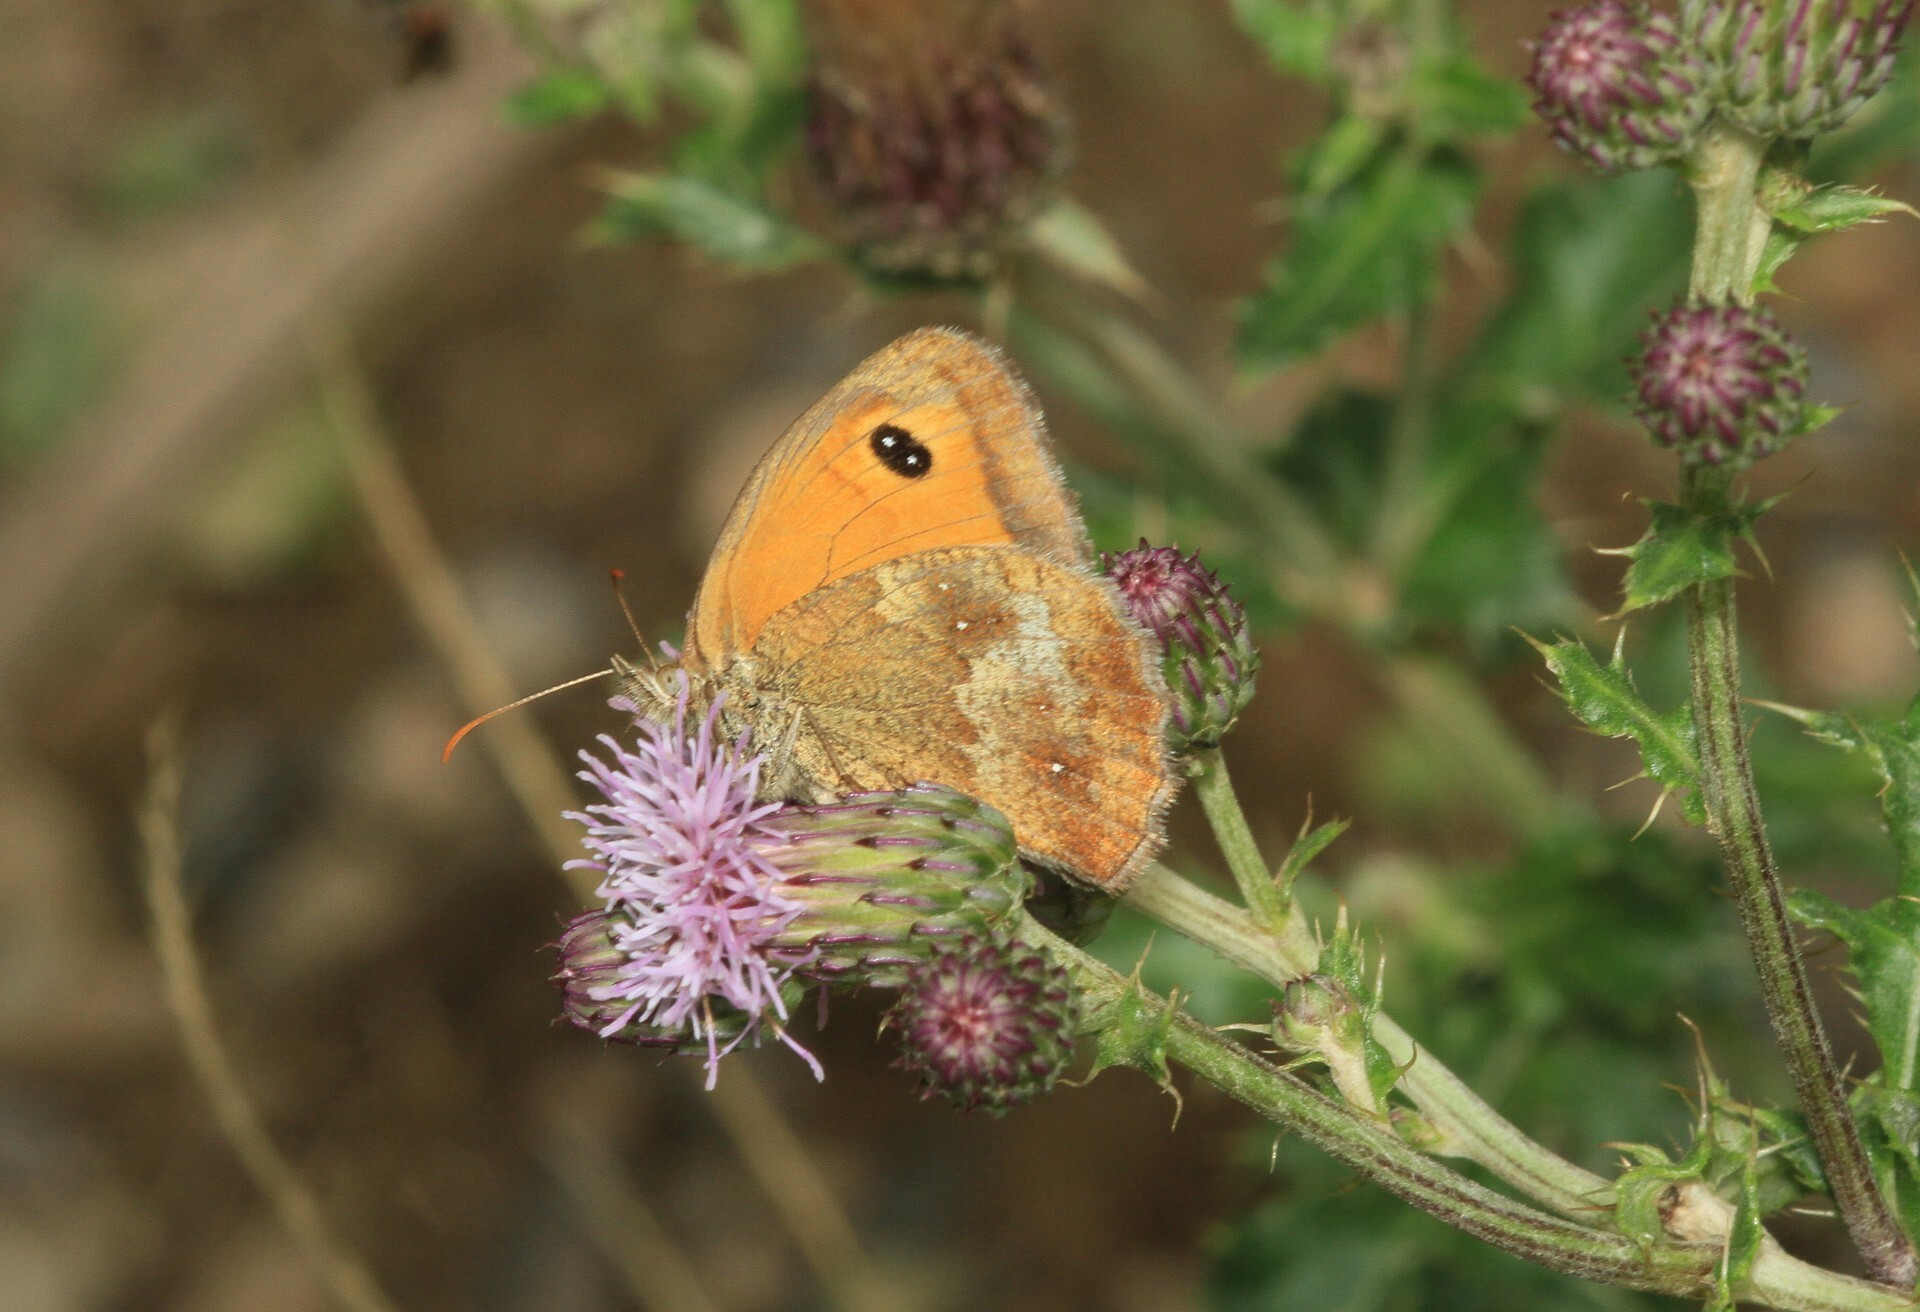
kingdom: Animalia
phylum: Arthropoda
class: Insecta
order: Lepidoptera
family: Nymphalidae
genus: Pyronia
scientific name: Pyronia tithonus
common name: Gatekeeper
